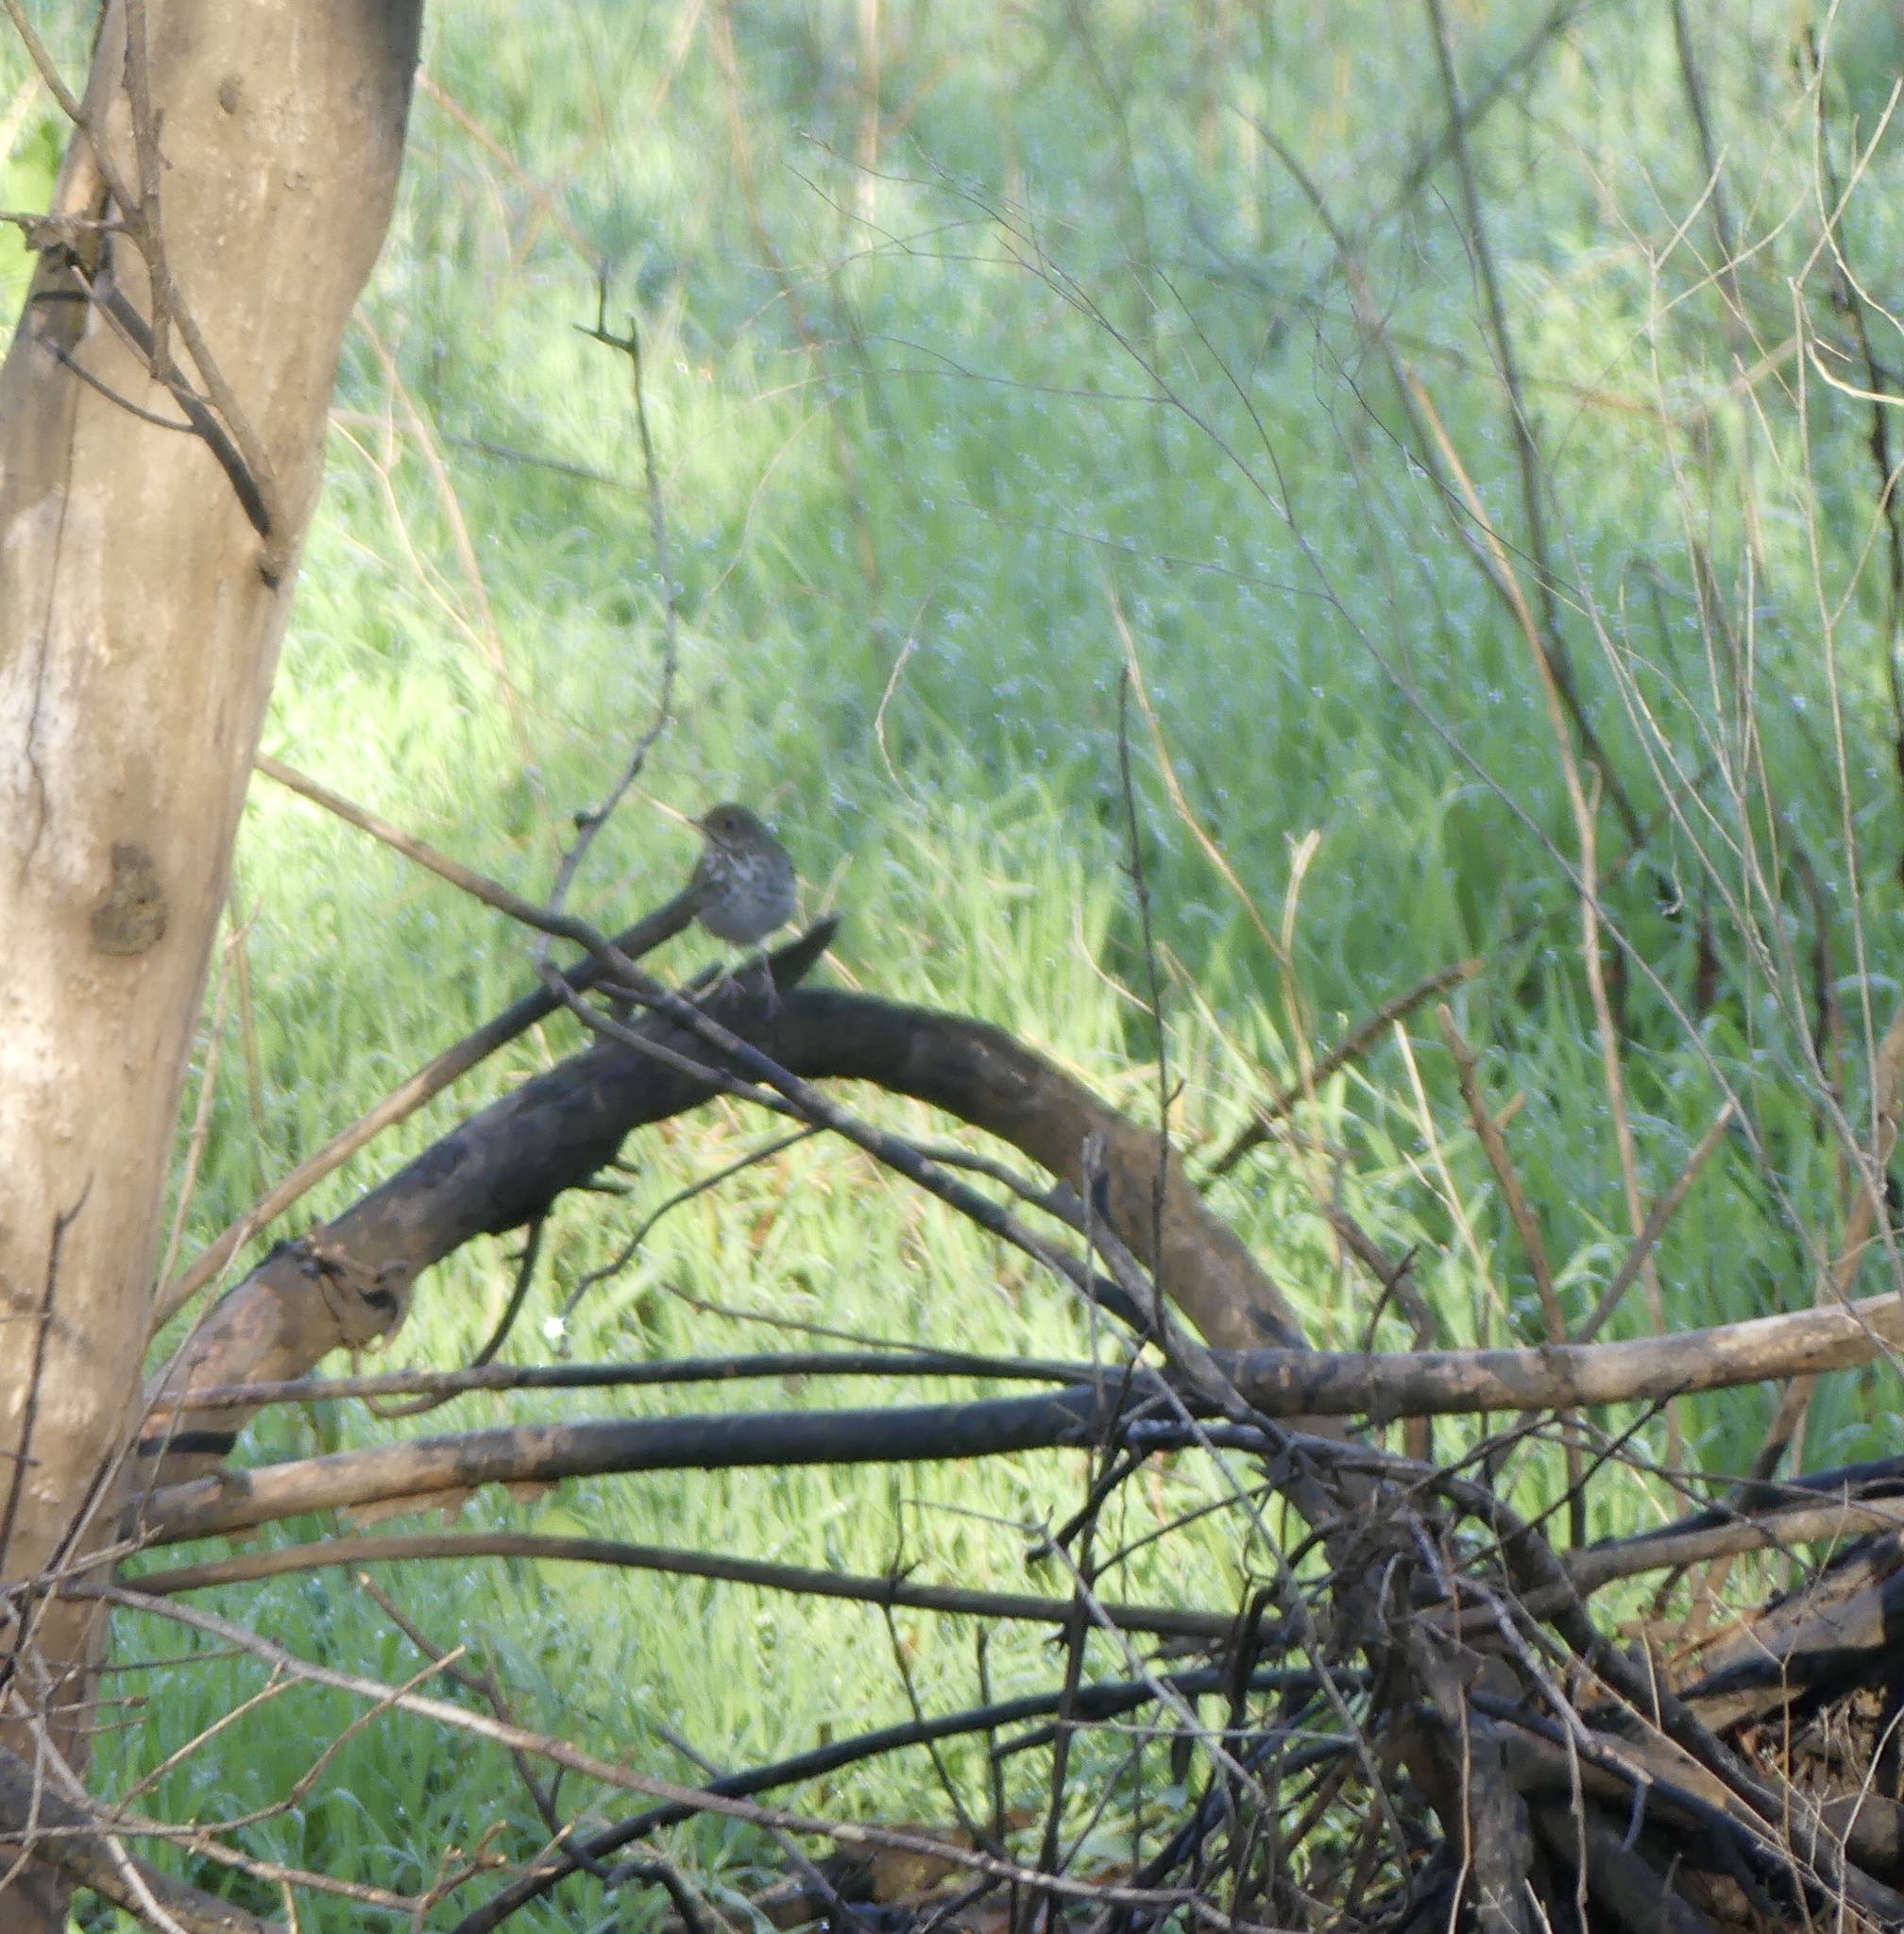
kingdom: Animalia
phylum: Chordata
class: Aves
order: Passeriformes
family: Turdidae
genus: Catharus
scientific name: Catharus guttatus
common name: Hermit thrush
